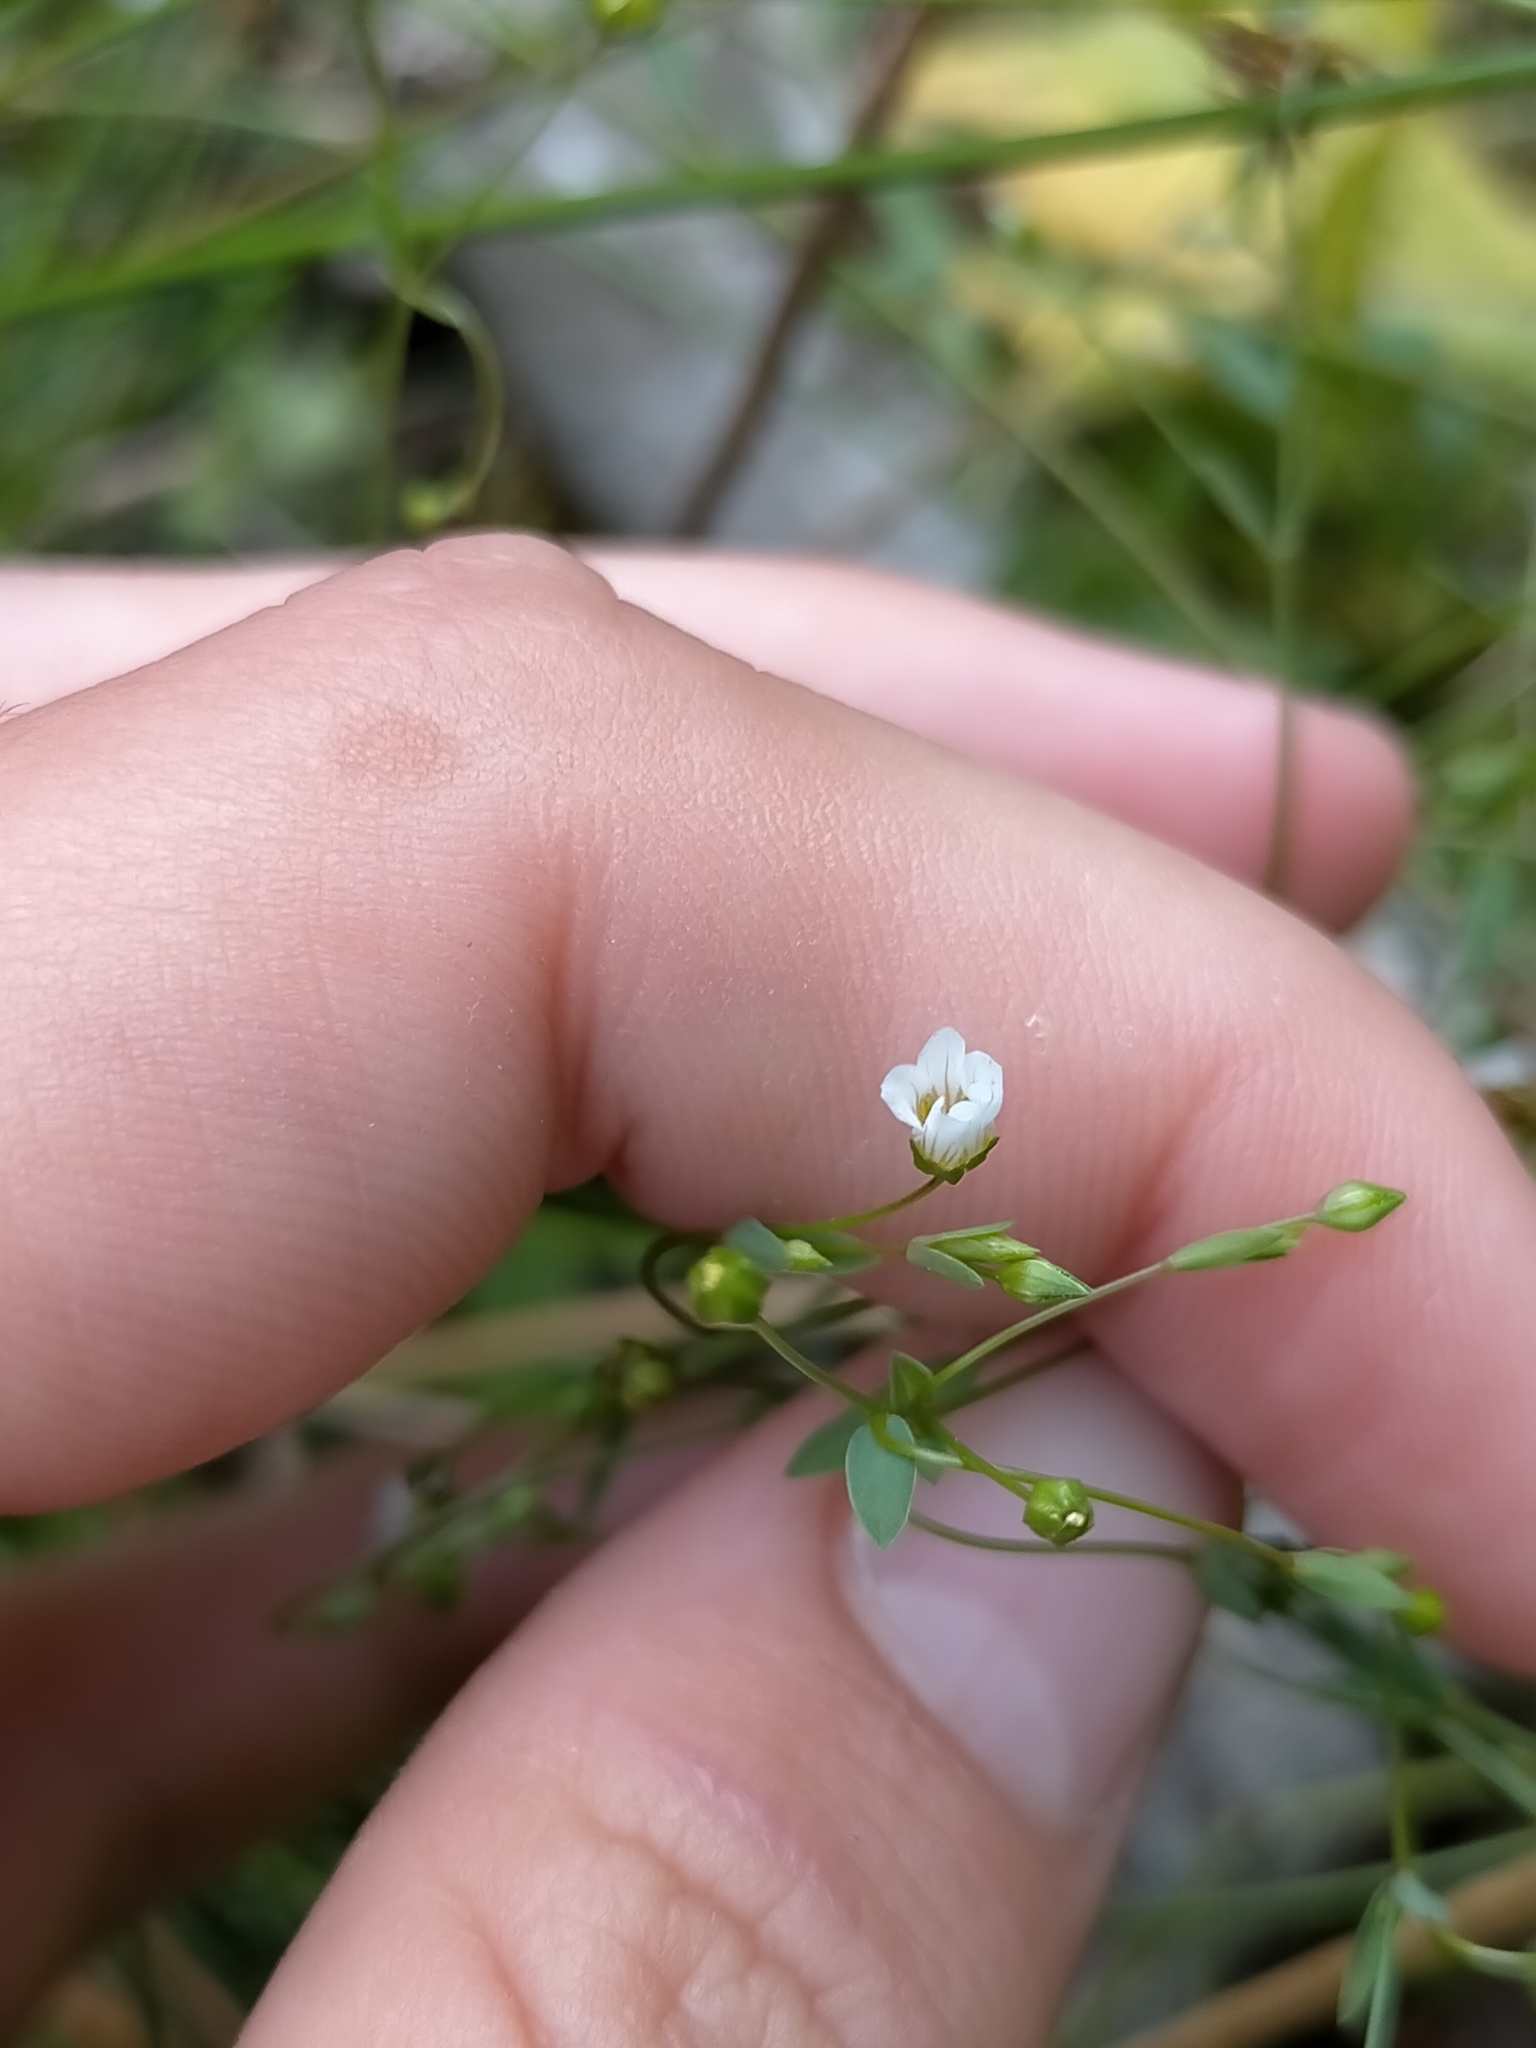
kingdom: Plantae
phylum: Tracheophyta
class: Magnoliopsida
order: Malpighiales
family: Linaceae
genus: Linum
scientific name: Linum catharticum
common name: Fairy flax
